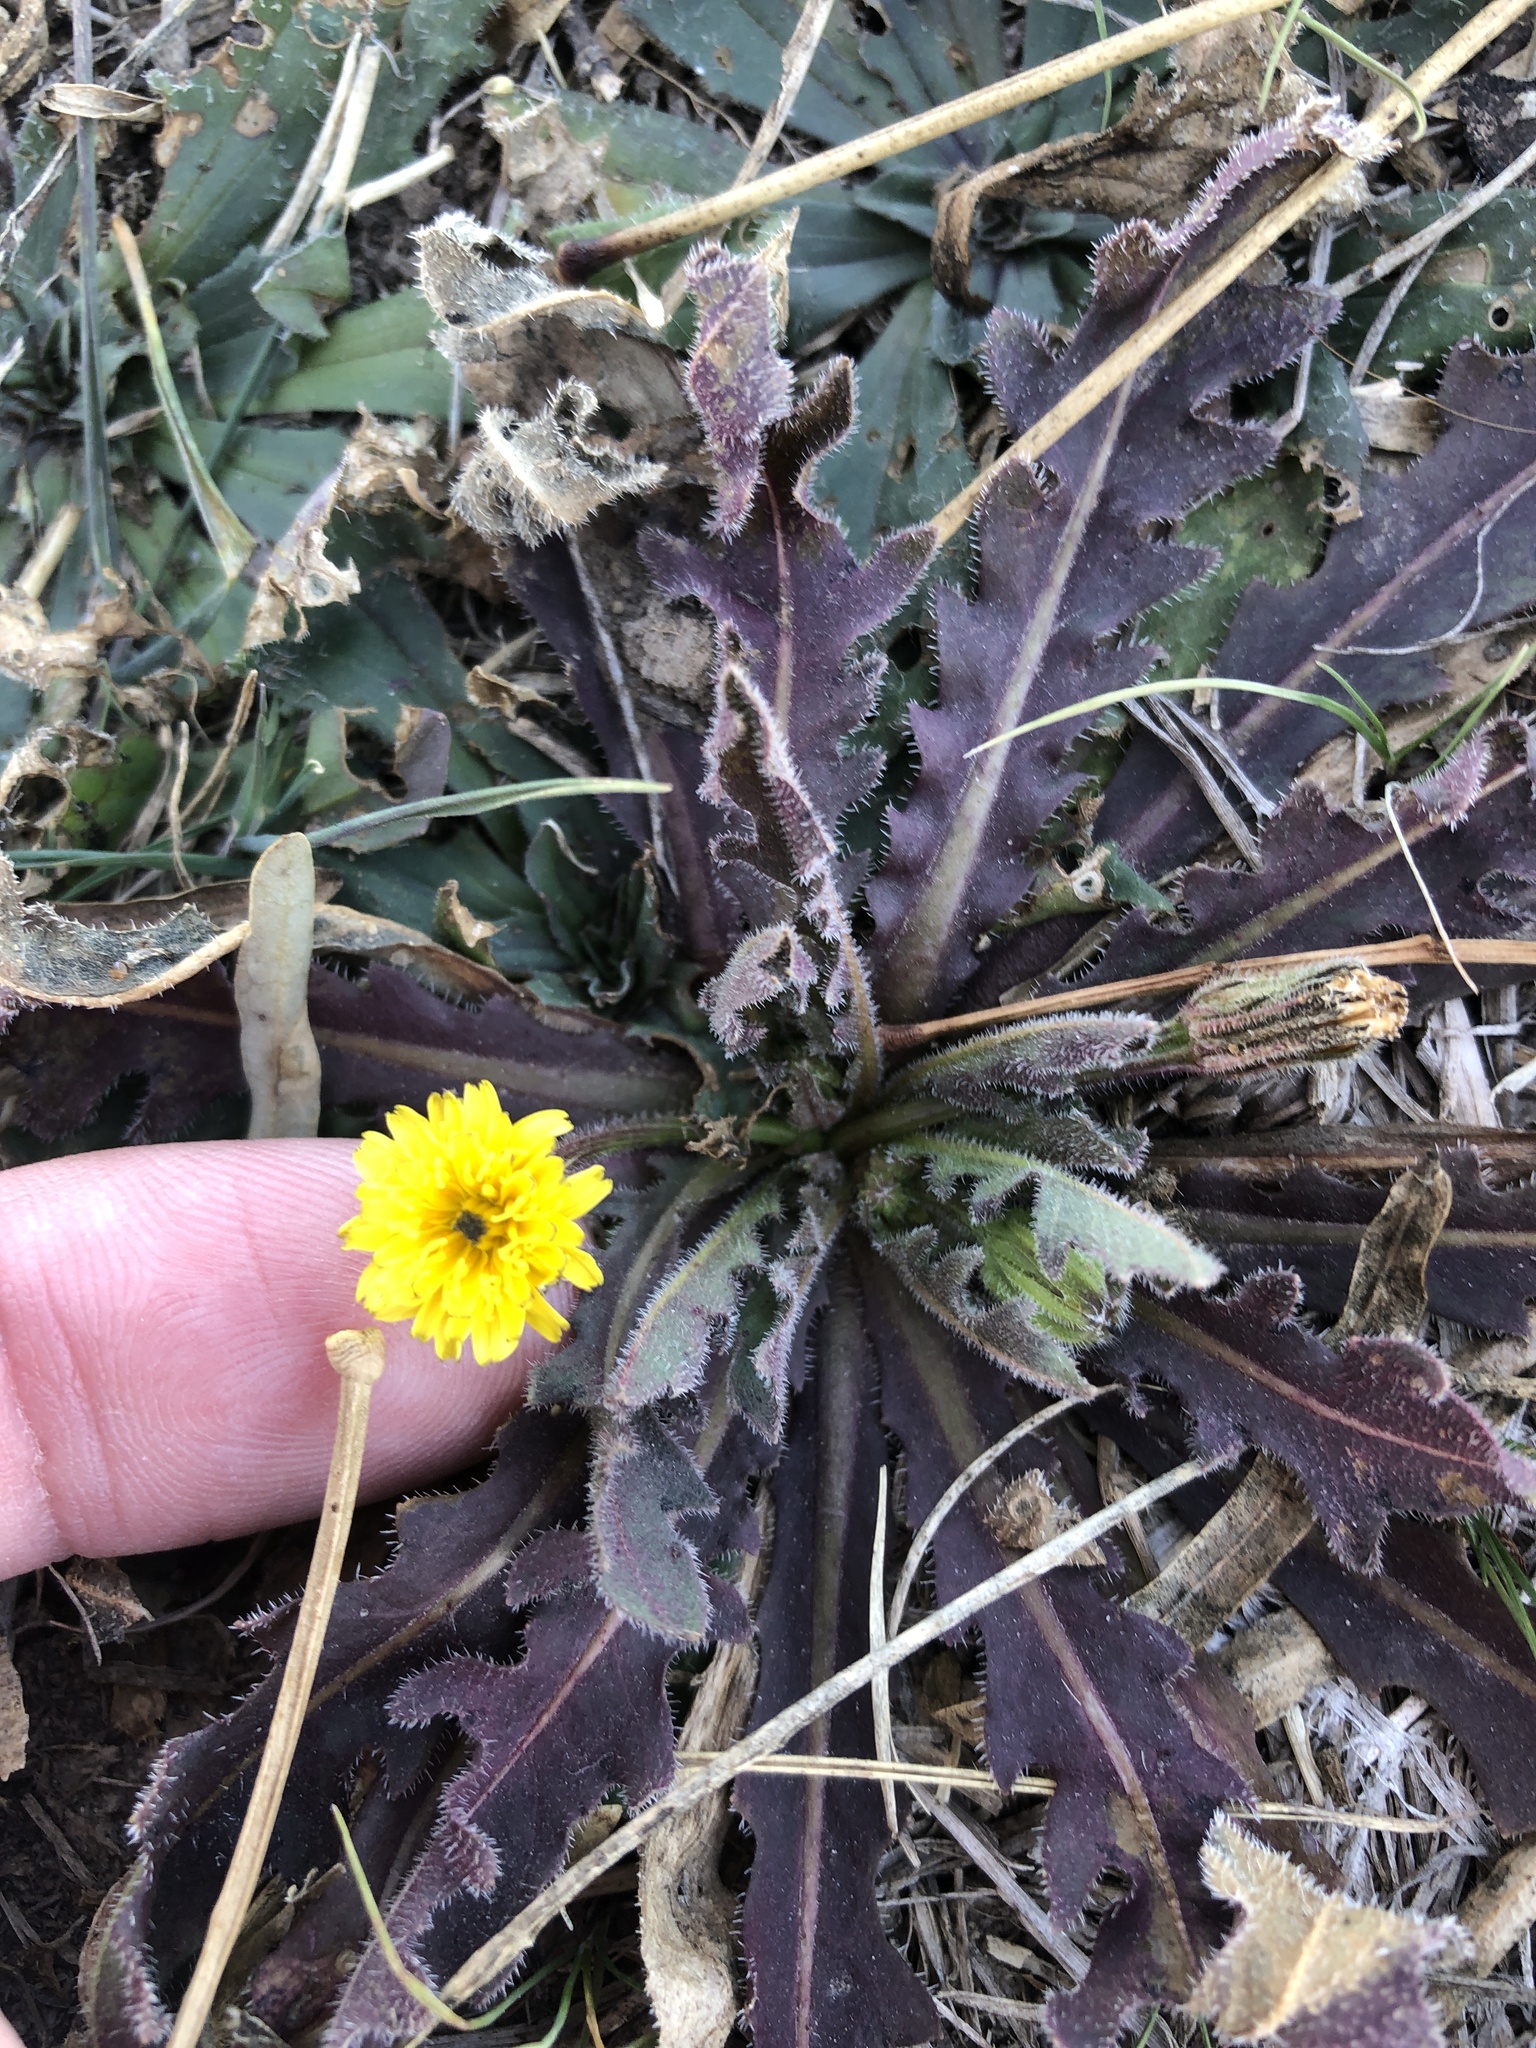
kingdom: Plantae
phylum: Tracheophyta
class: Magnoliopsida
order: Asterales
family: Asteraceae
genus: Hedypnois
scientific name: Hedypnois rhagadioloides
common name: Cretan weed
